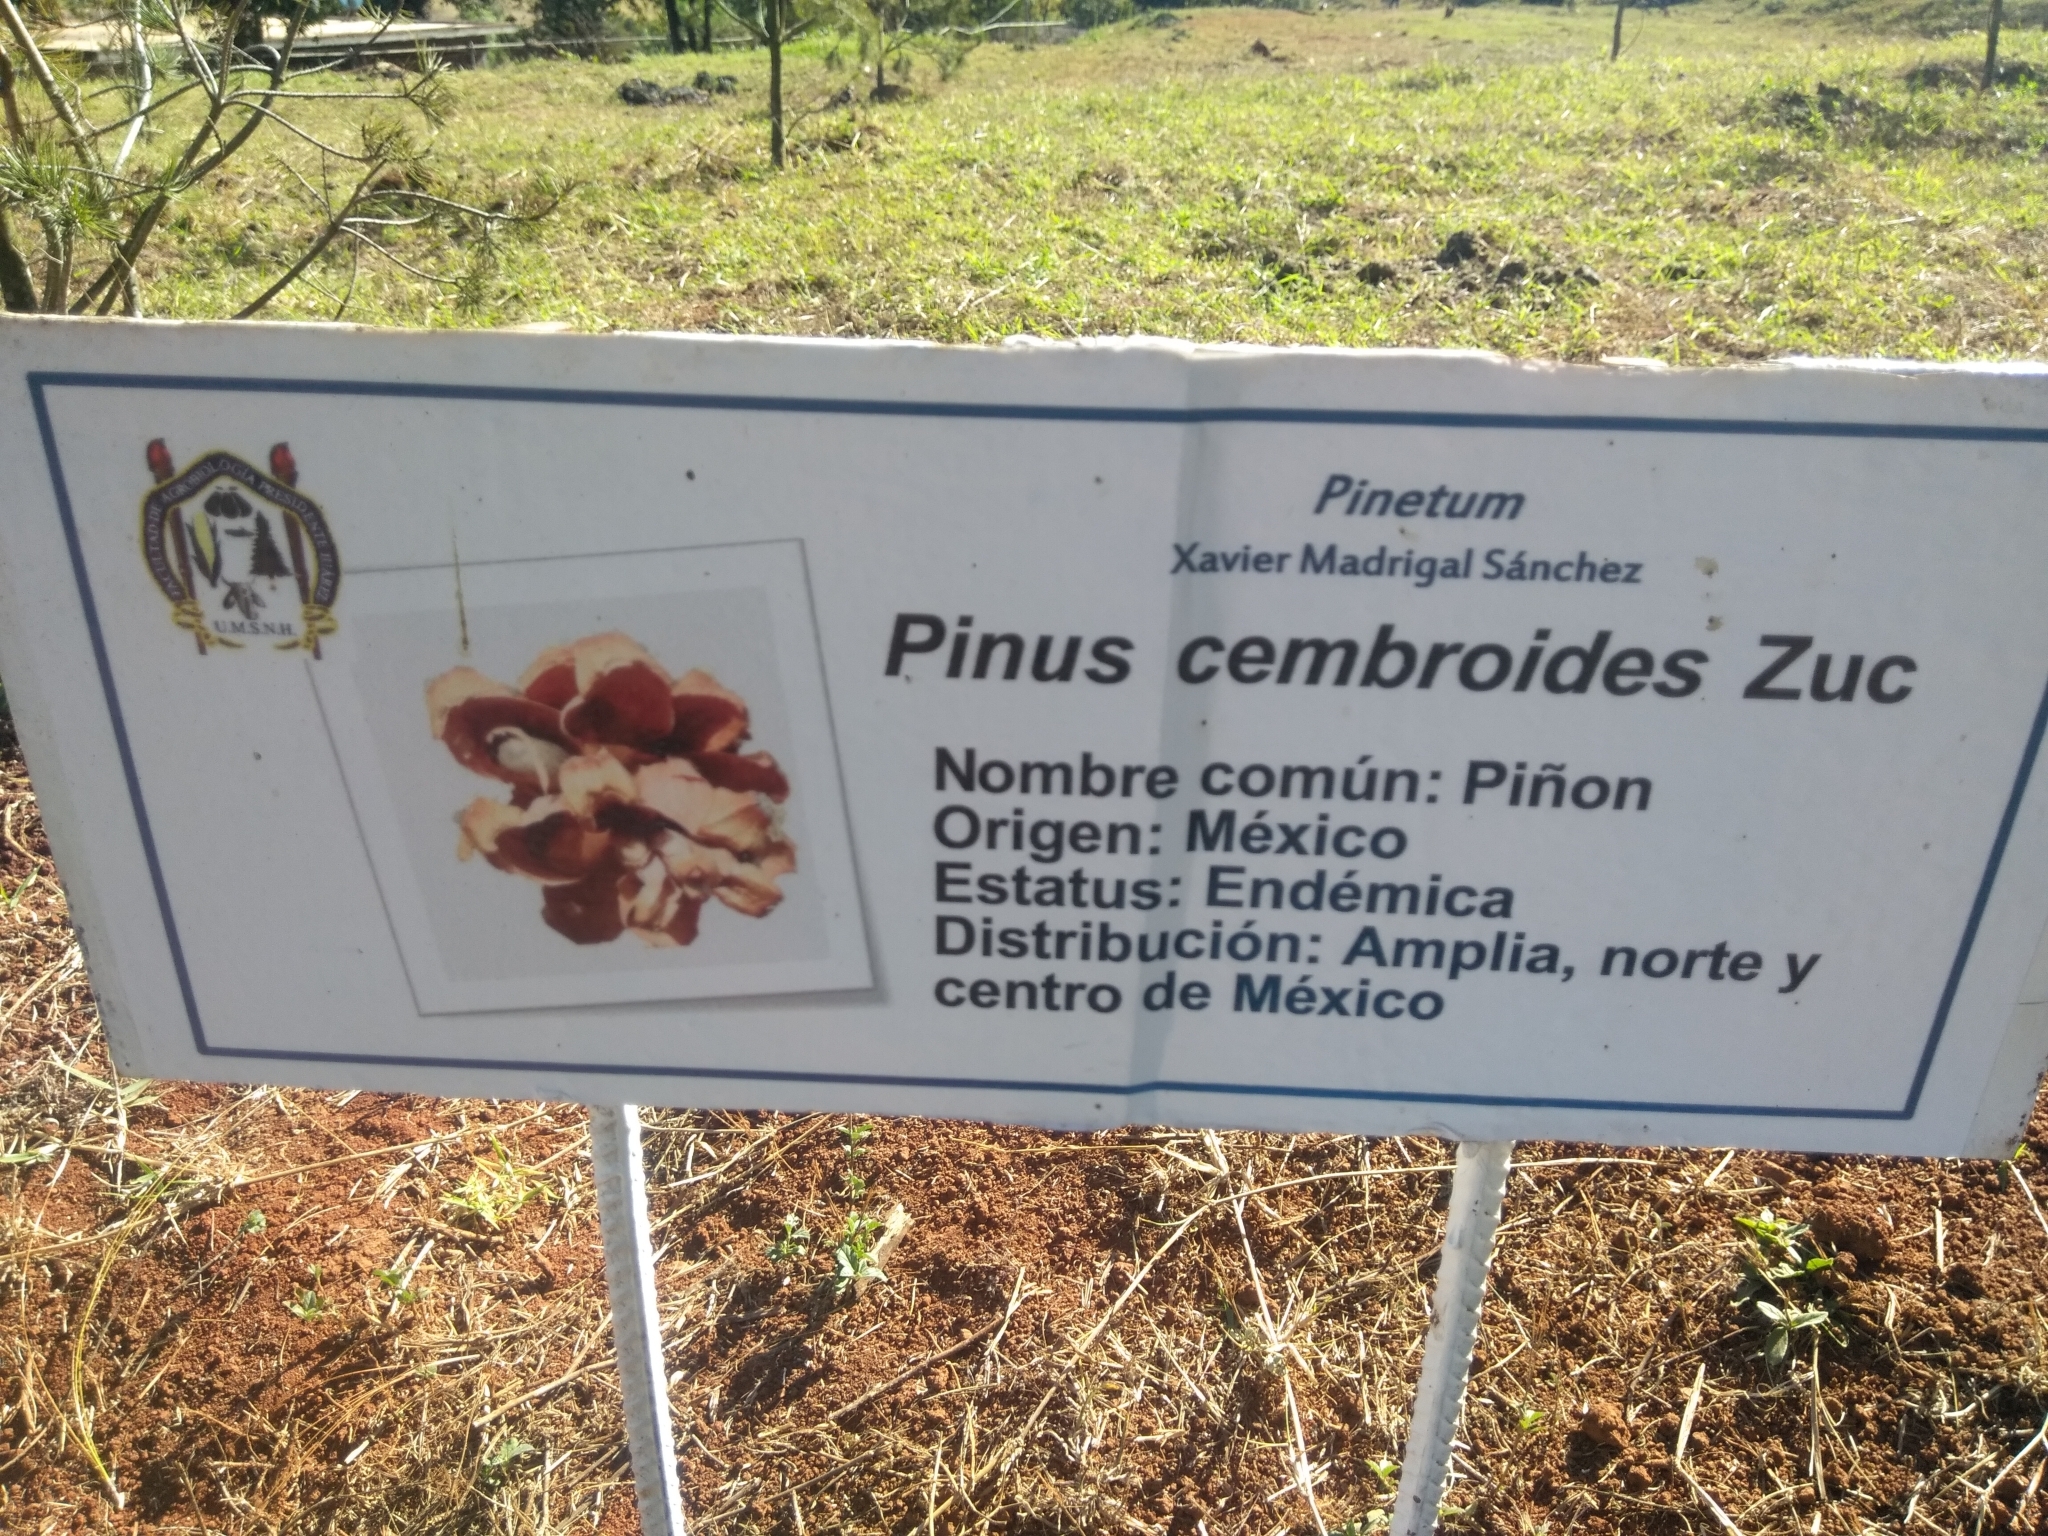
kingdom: Plantae
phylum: Tracheophyta
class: Pinopsida
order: Pinales
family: Pinaceae
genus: Pinus
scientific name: Pinus cembroides
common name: Mexican nut pine
